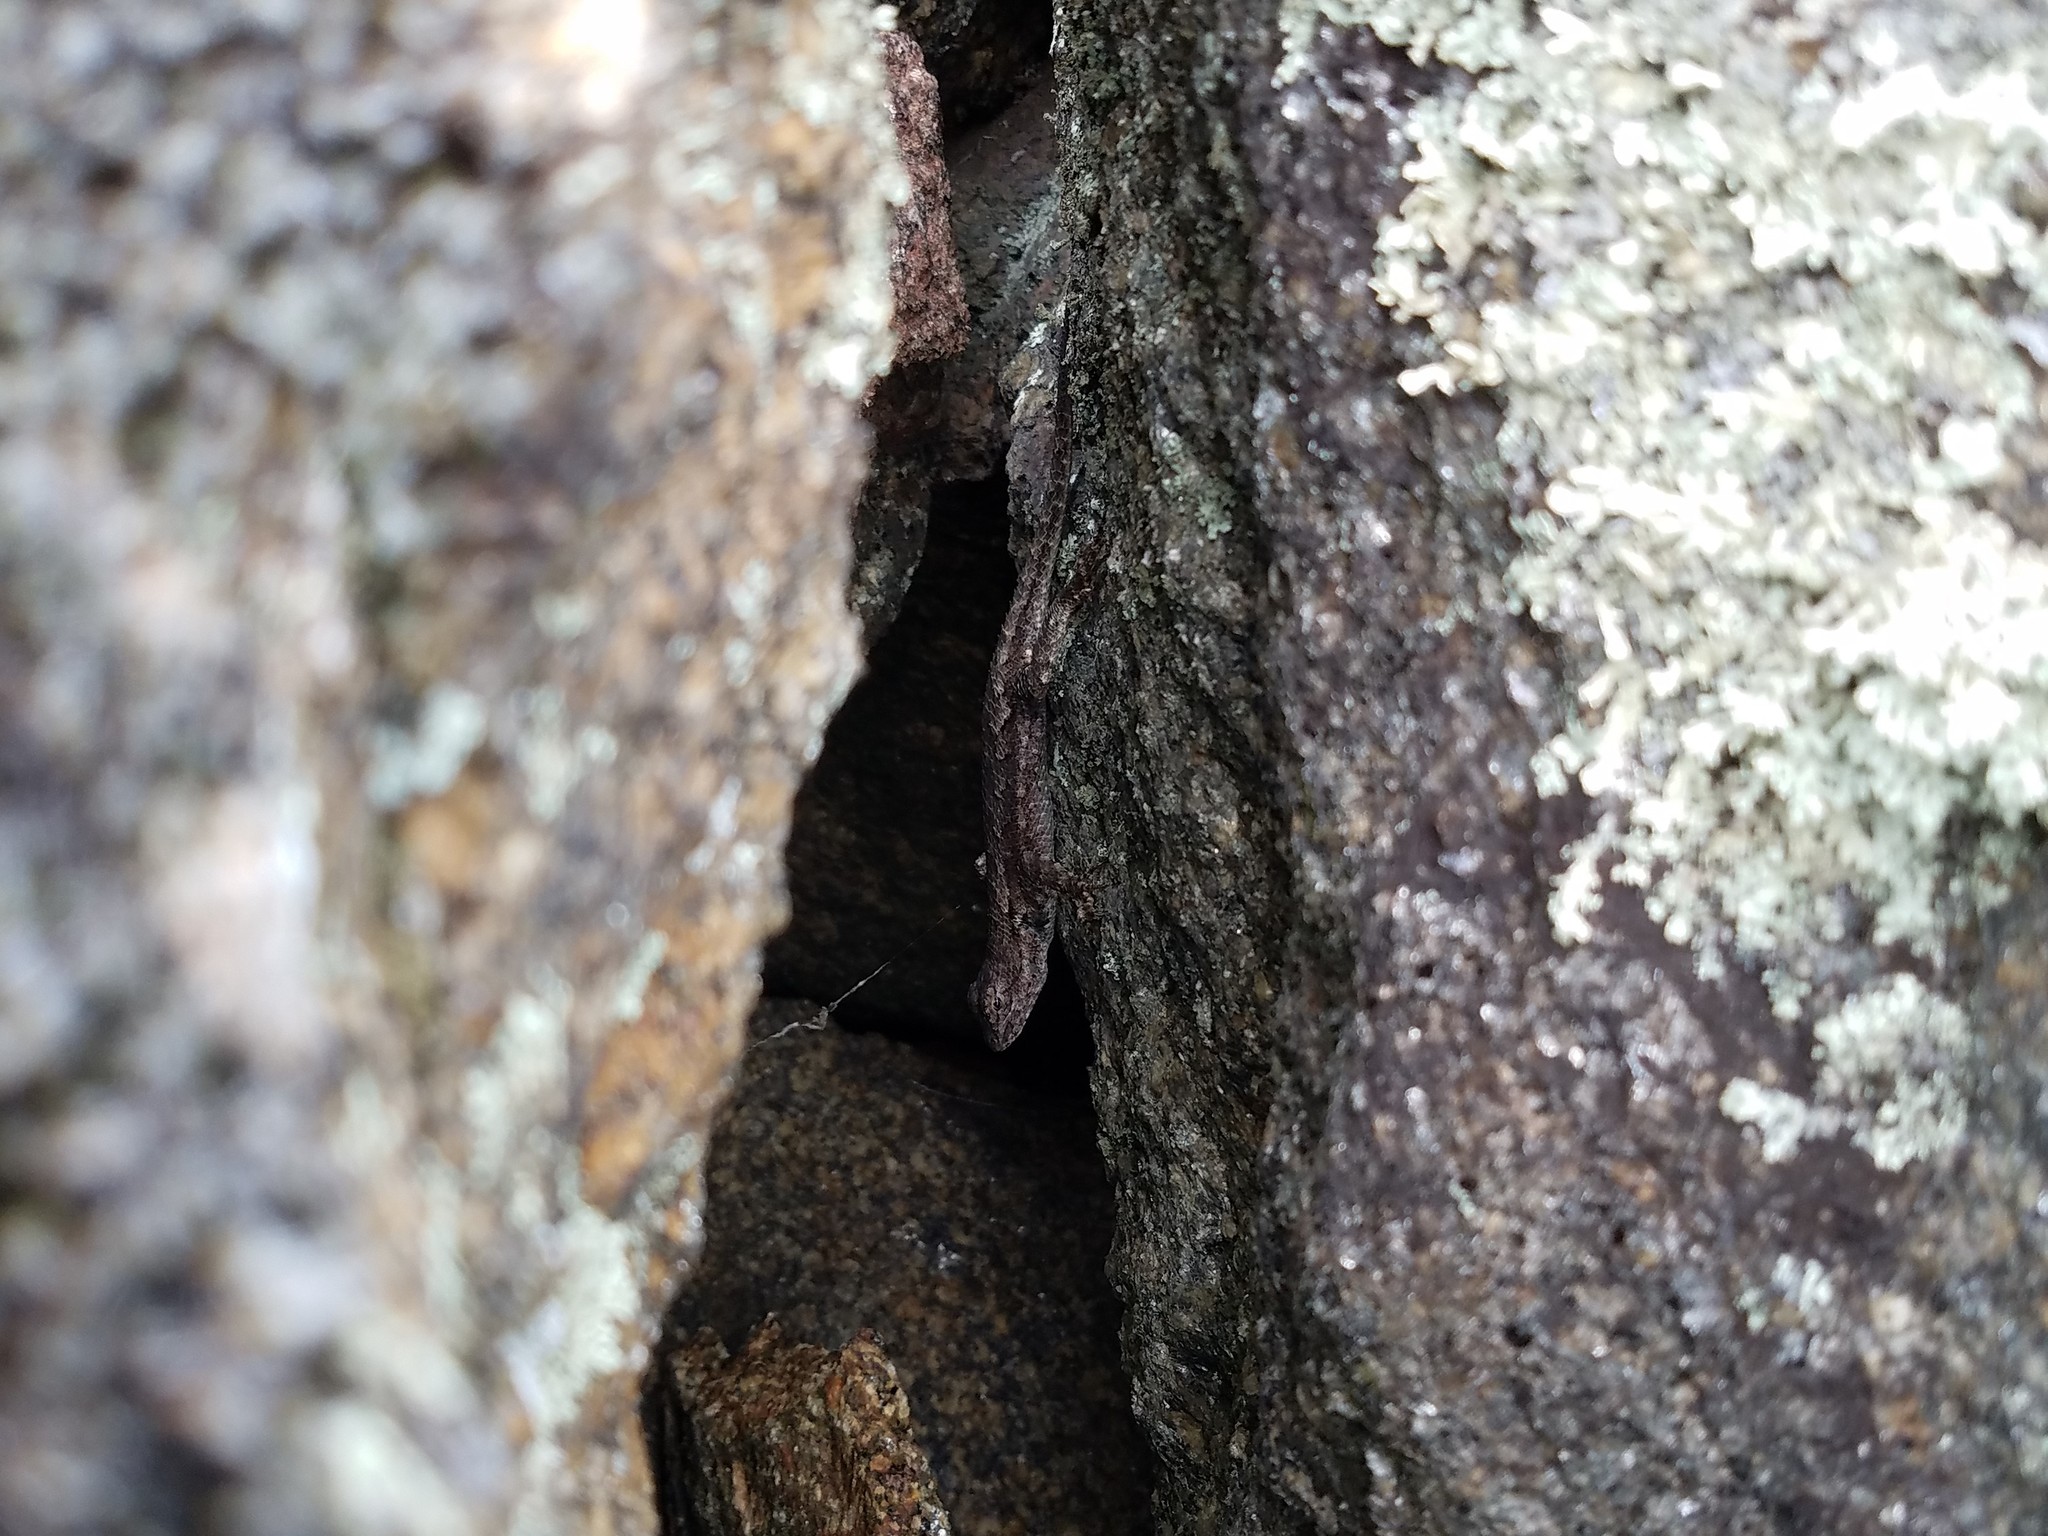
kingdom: Animalia
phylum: Chordata
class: Squamata
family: Phrynosomatidae
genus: Sceloporus
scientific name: Sceloporus undulatus
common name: Eastern fence lizard
